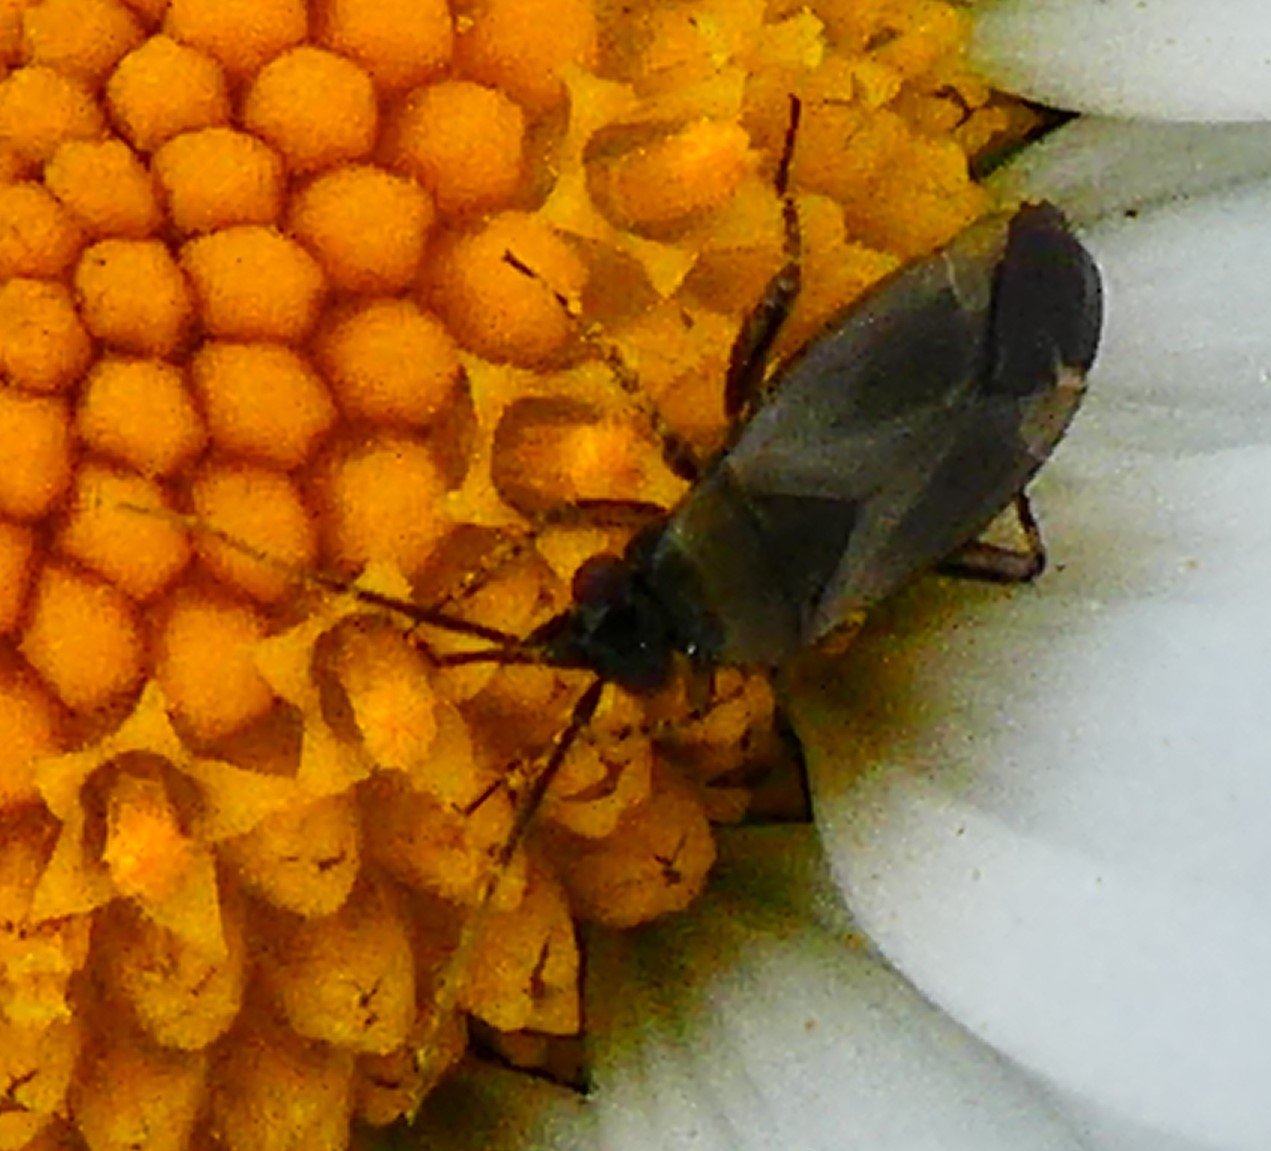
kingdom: Animalia
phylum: Arthropoda
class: Insecta
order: Hemiptera
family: Miridae
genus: Plagiognathus
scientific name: Plagiognathus arbustorum
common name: Plant bug
